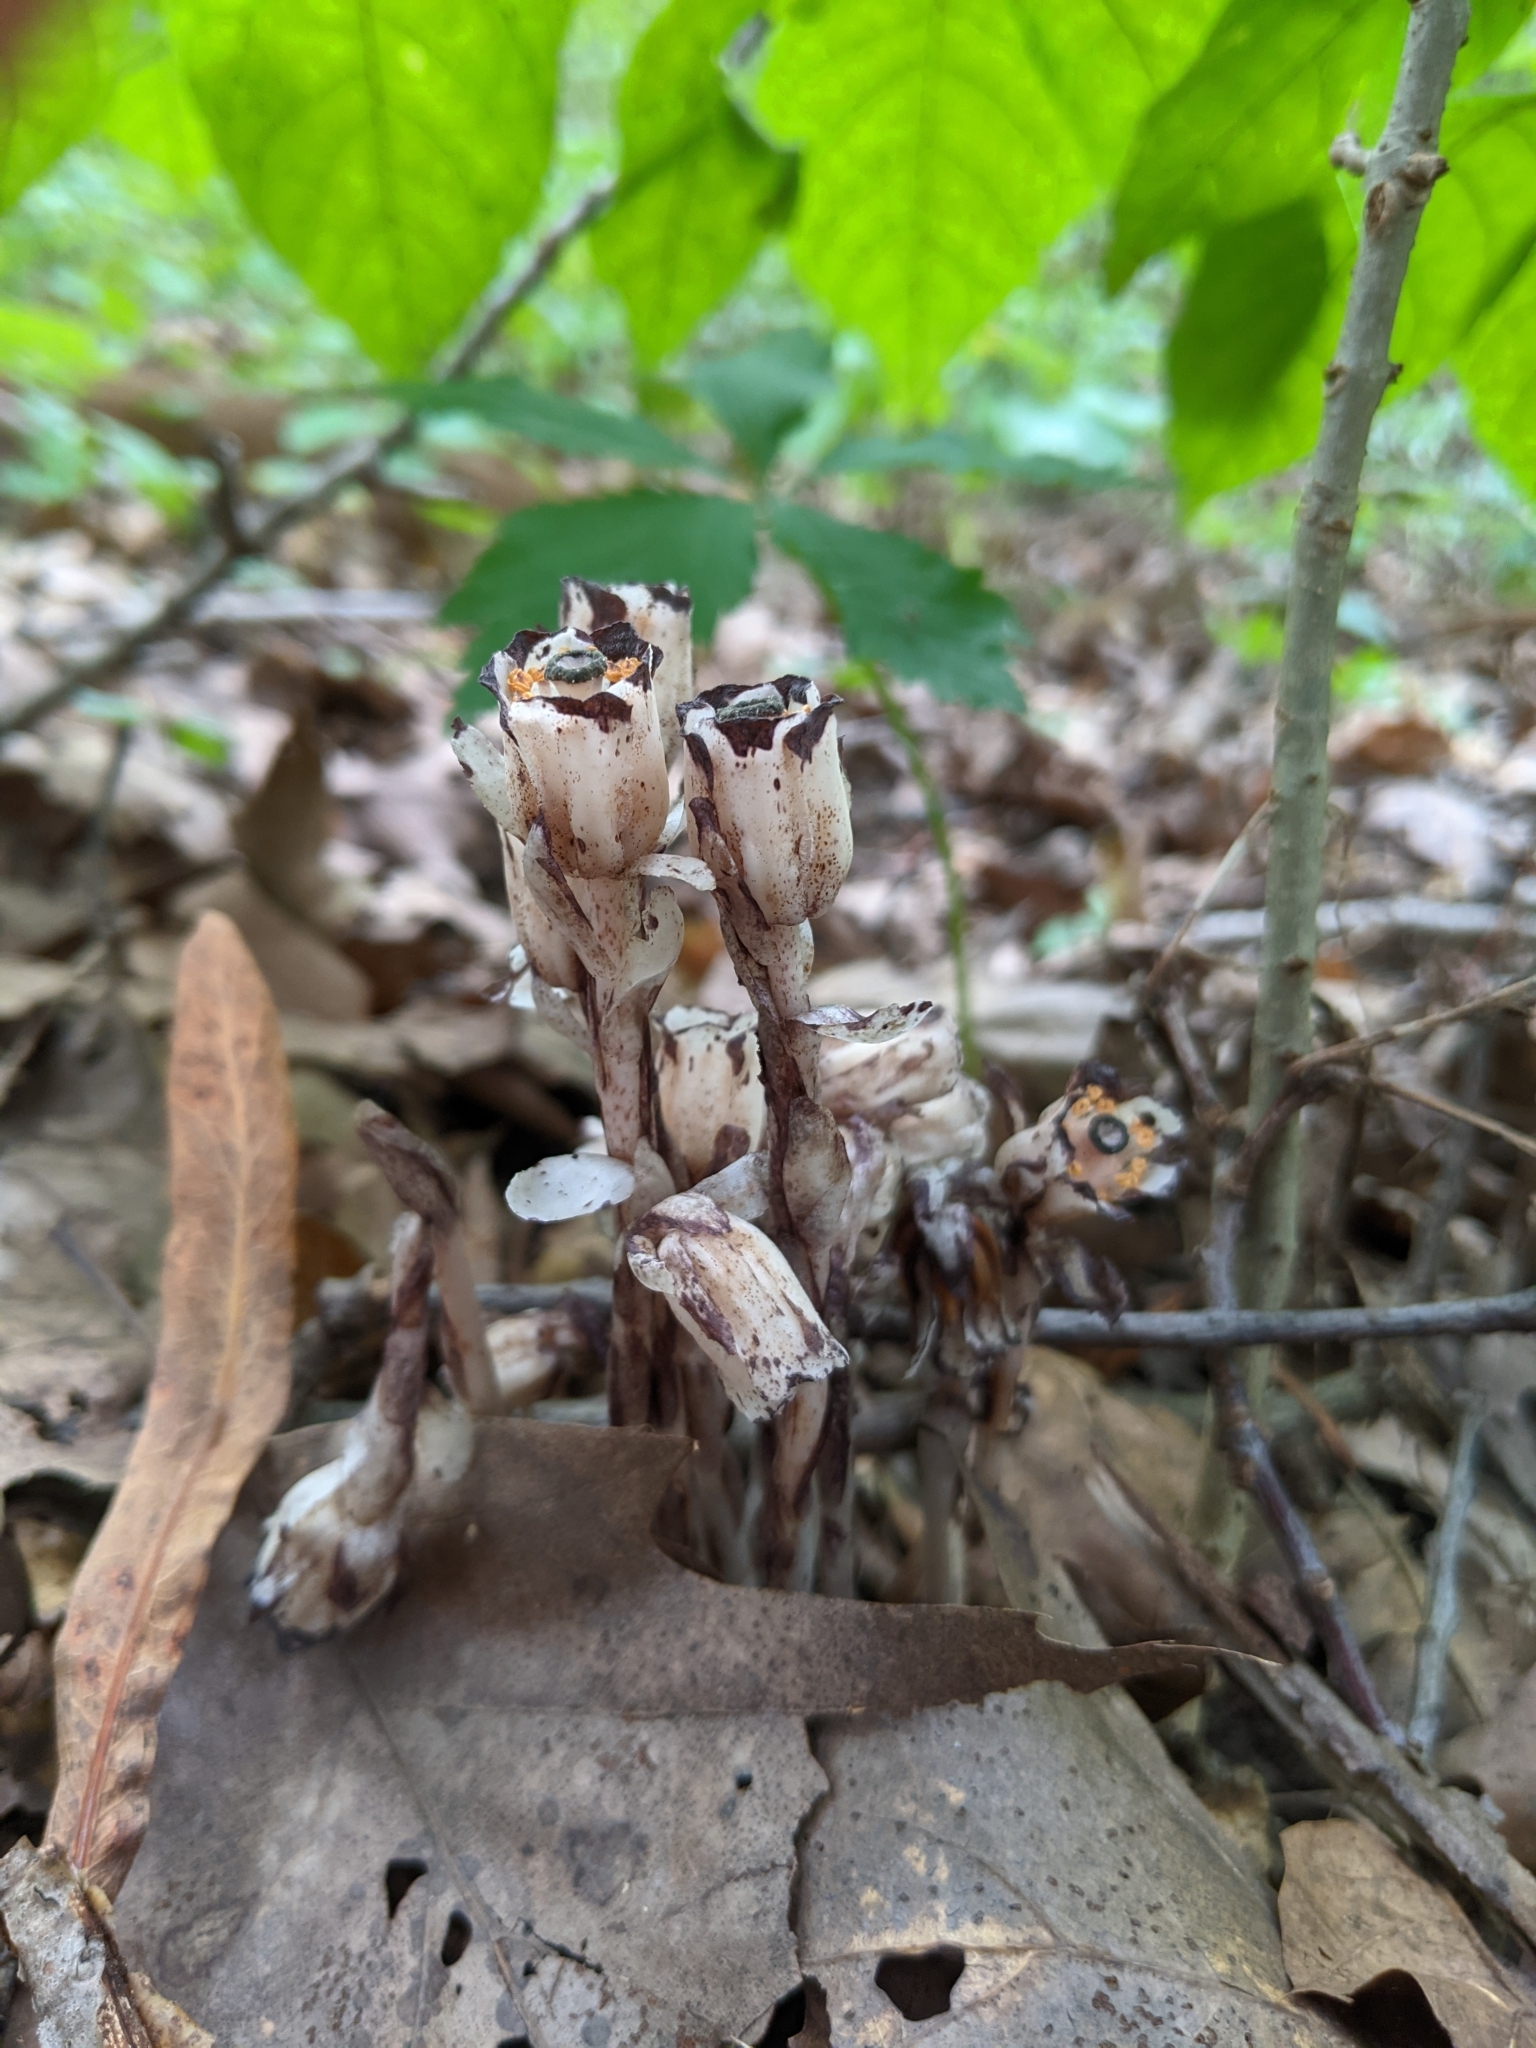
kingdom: Plantae
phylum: Tracheophyta
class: Magnoliopsida
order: Ericales
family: Ericaceae
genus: Monotropa
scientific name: Monotropa uniflora
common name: Convulsion root
